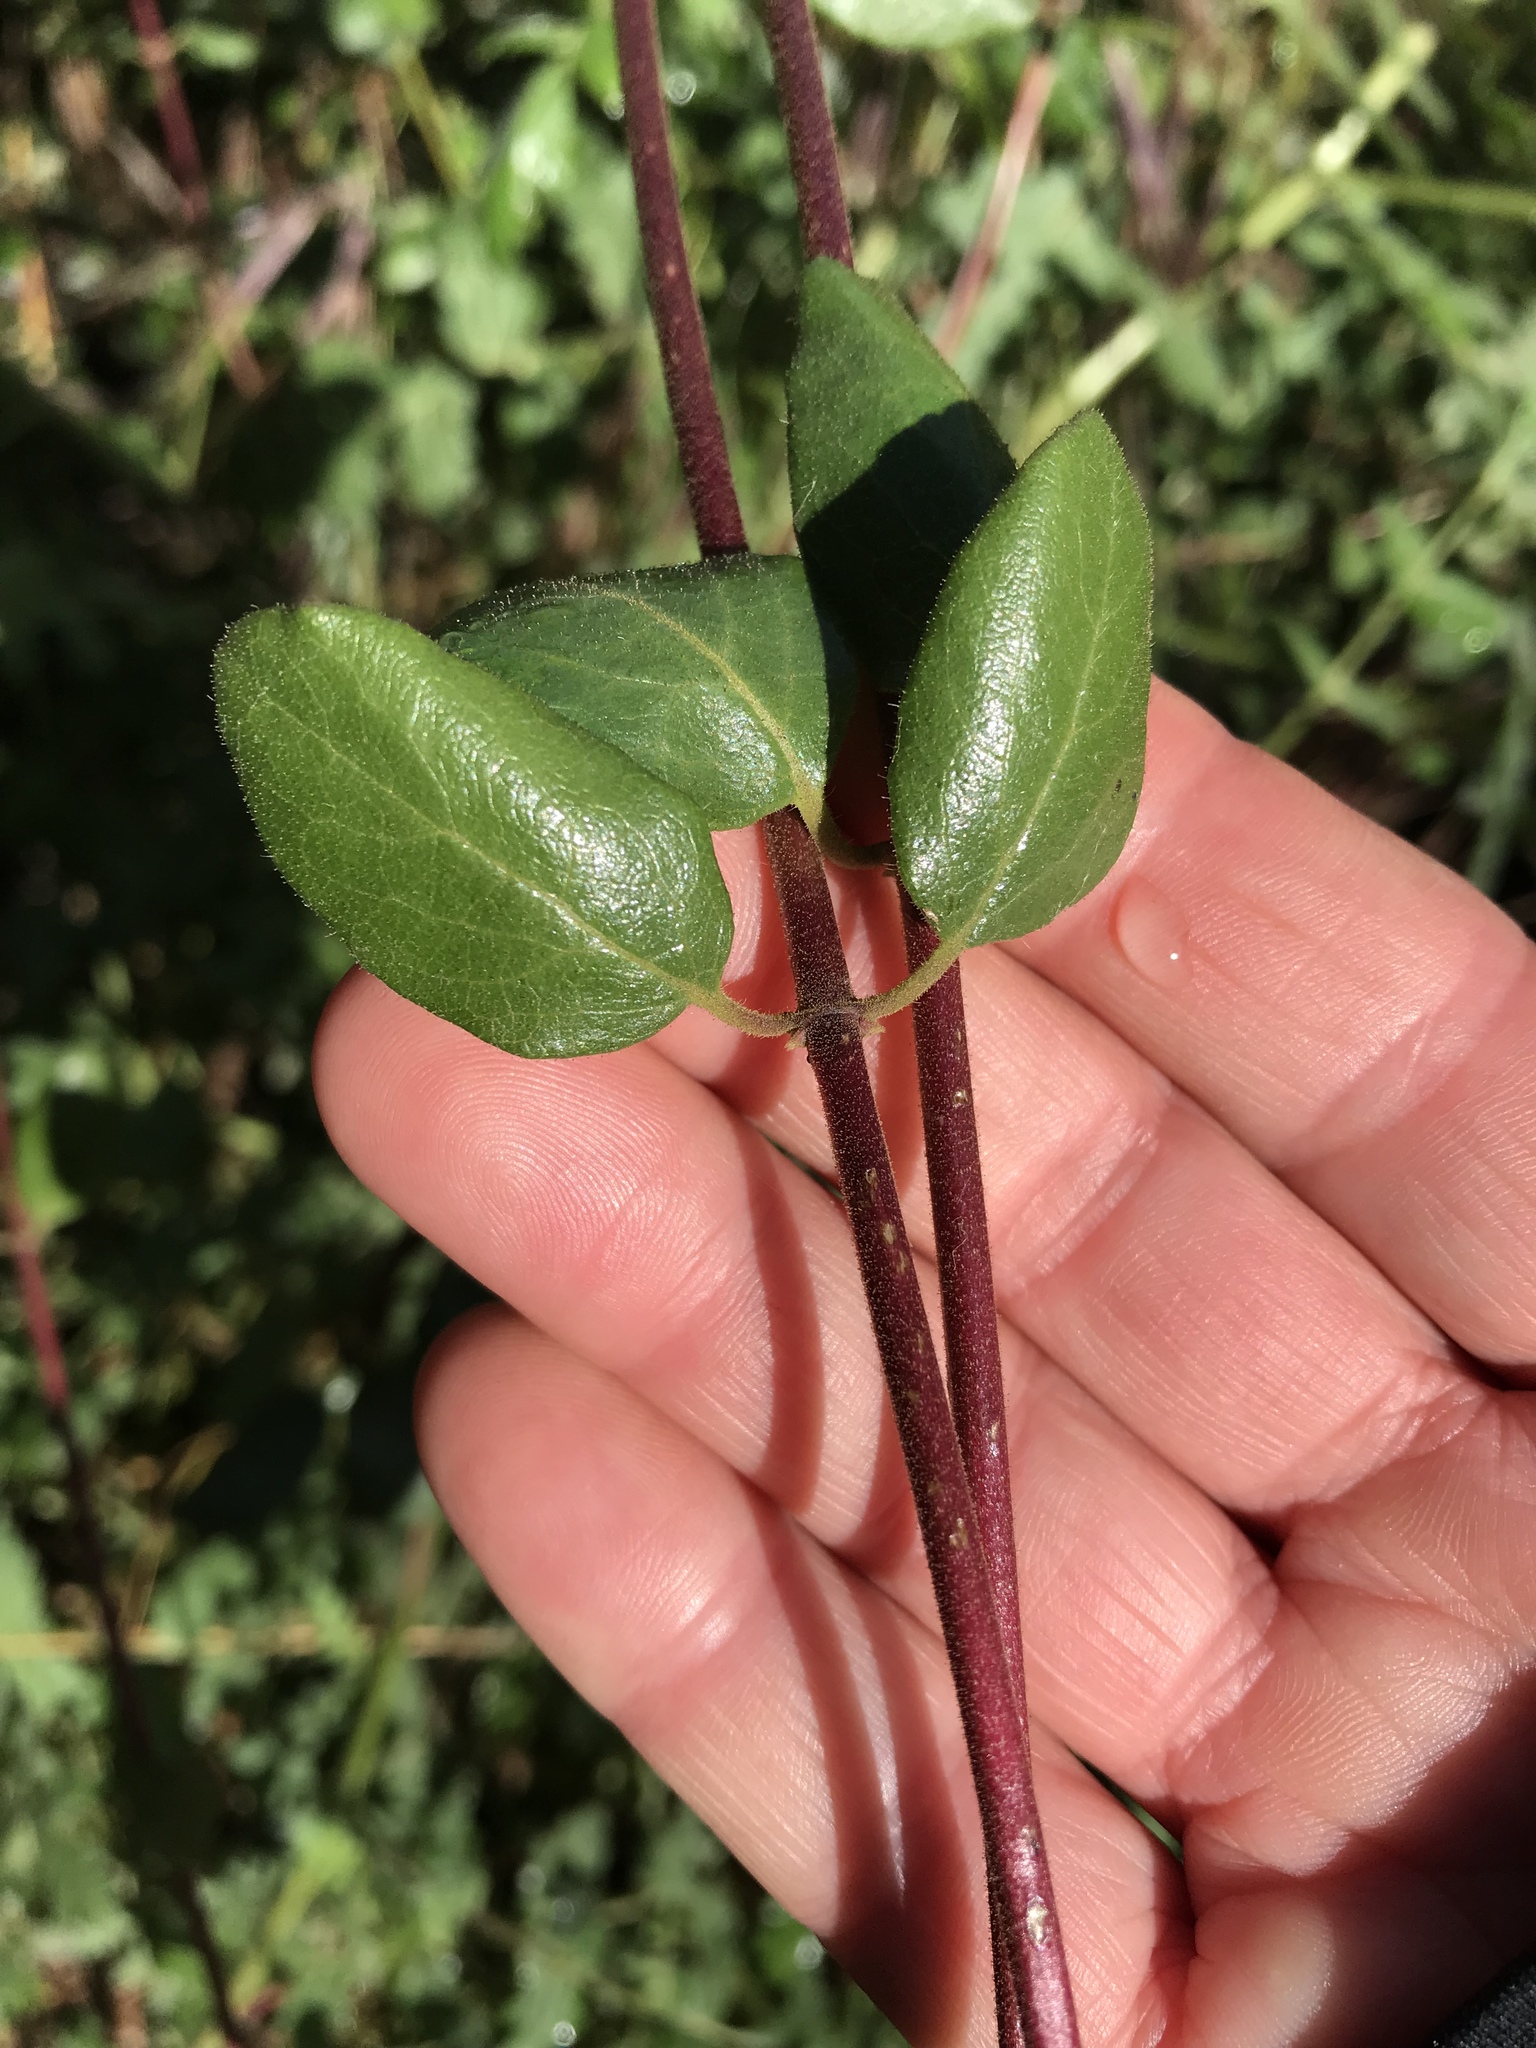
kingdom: Plantae
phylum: Tracheophyta
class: Magnoliopsida
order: Dipsacales
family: Caprifoliaceae
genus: Lonicera
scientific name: Lonicera subspicata
